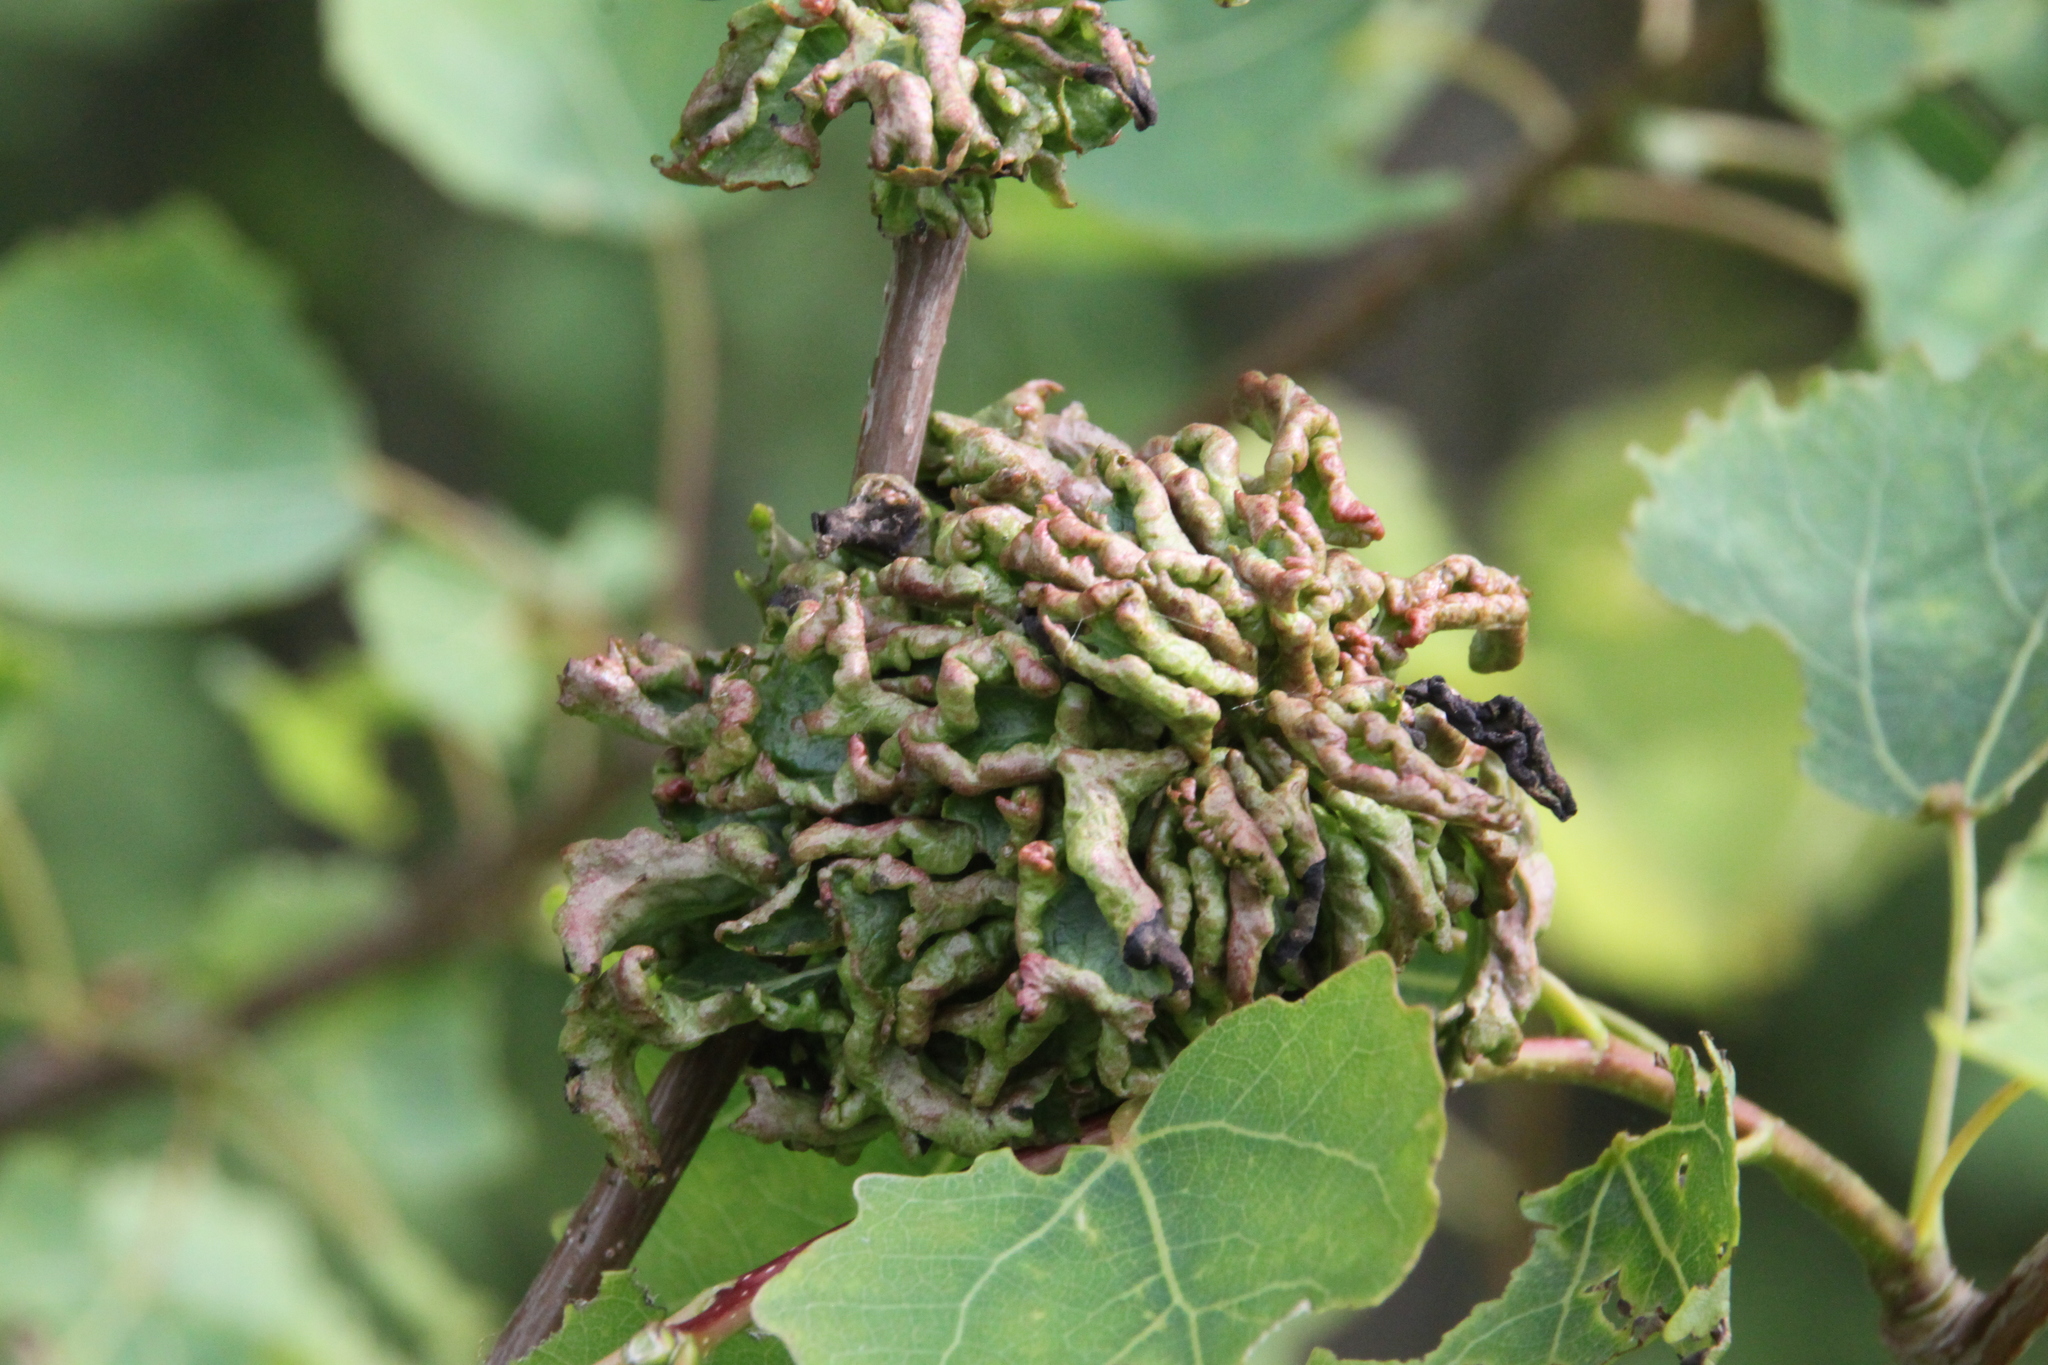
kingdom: Animalia
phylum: Arthropoda
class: Arachnida
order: Trombidiformes
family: Eriophyidae
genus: Aceria
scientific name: Aceria dispar
